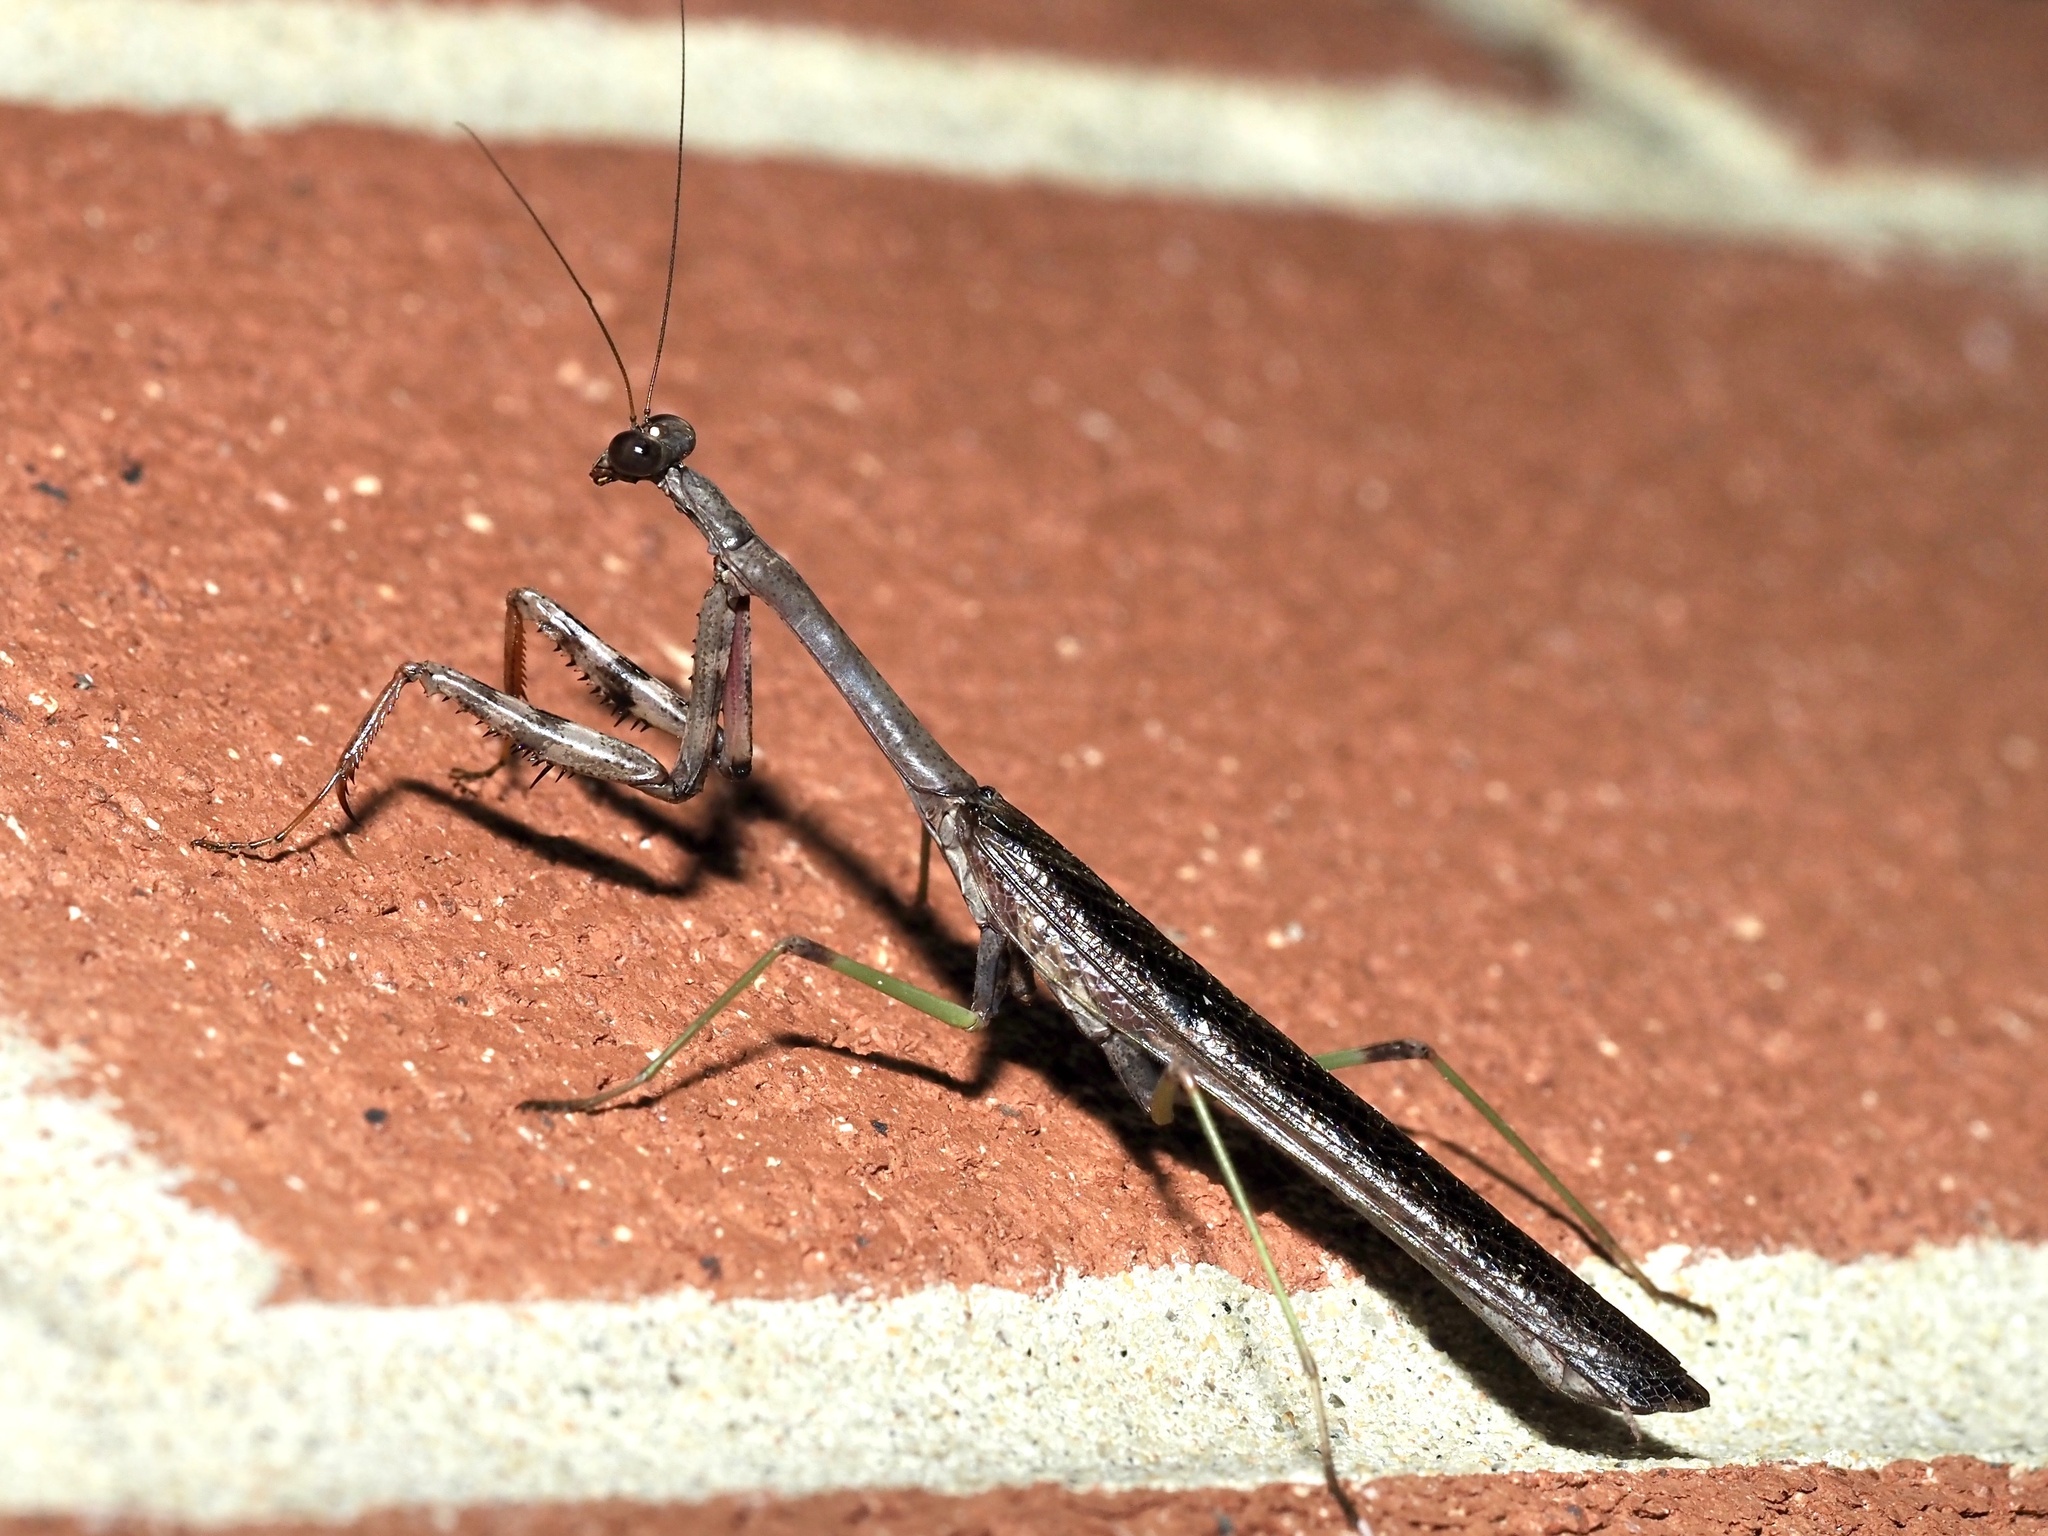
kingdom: Animalia
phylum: Arthropoda
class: Insecta
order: Mantodea
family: Mantidae
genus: Stagmomantis
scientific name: Stagmomantis carolina
